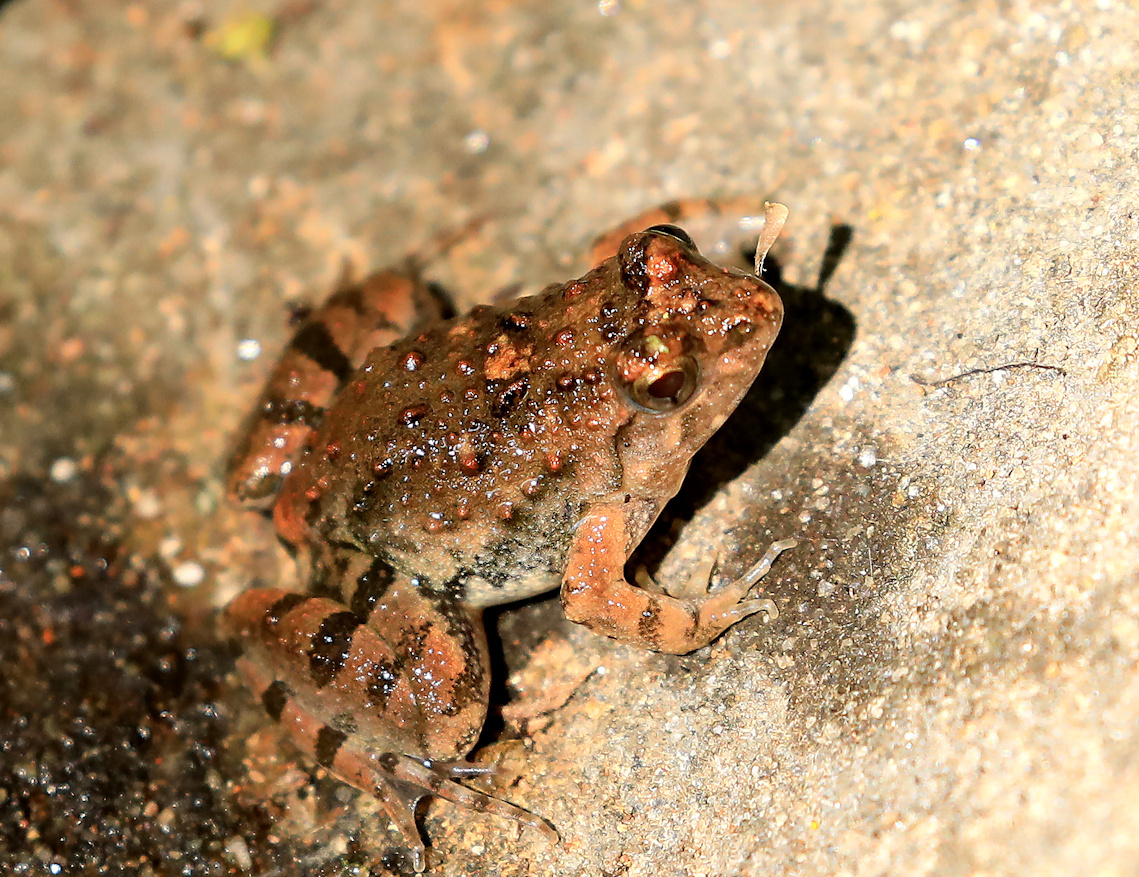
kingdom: Animalia
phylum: Chordata
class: Amphibia
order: Anura
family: Phrynobatrachidae
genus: Phrynobatrachus
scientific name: Phrynobatrachus natalensis
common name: Snoring puddle frog
